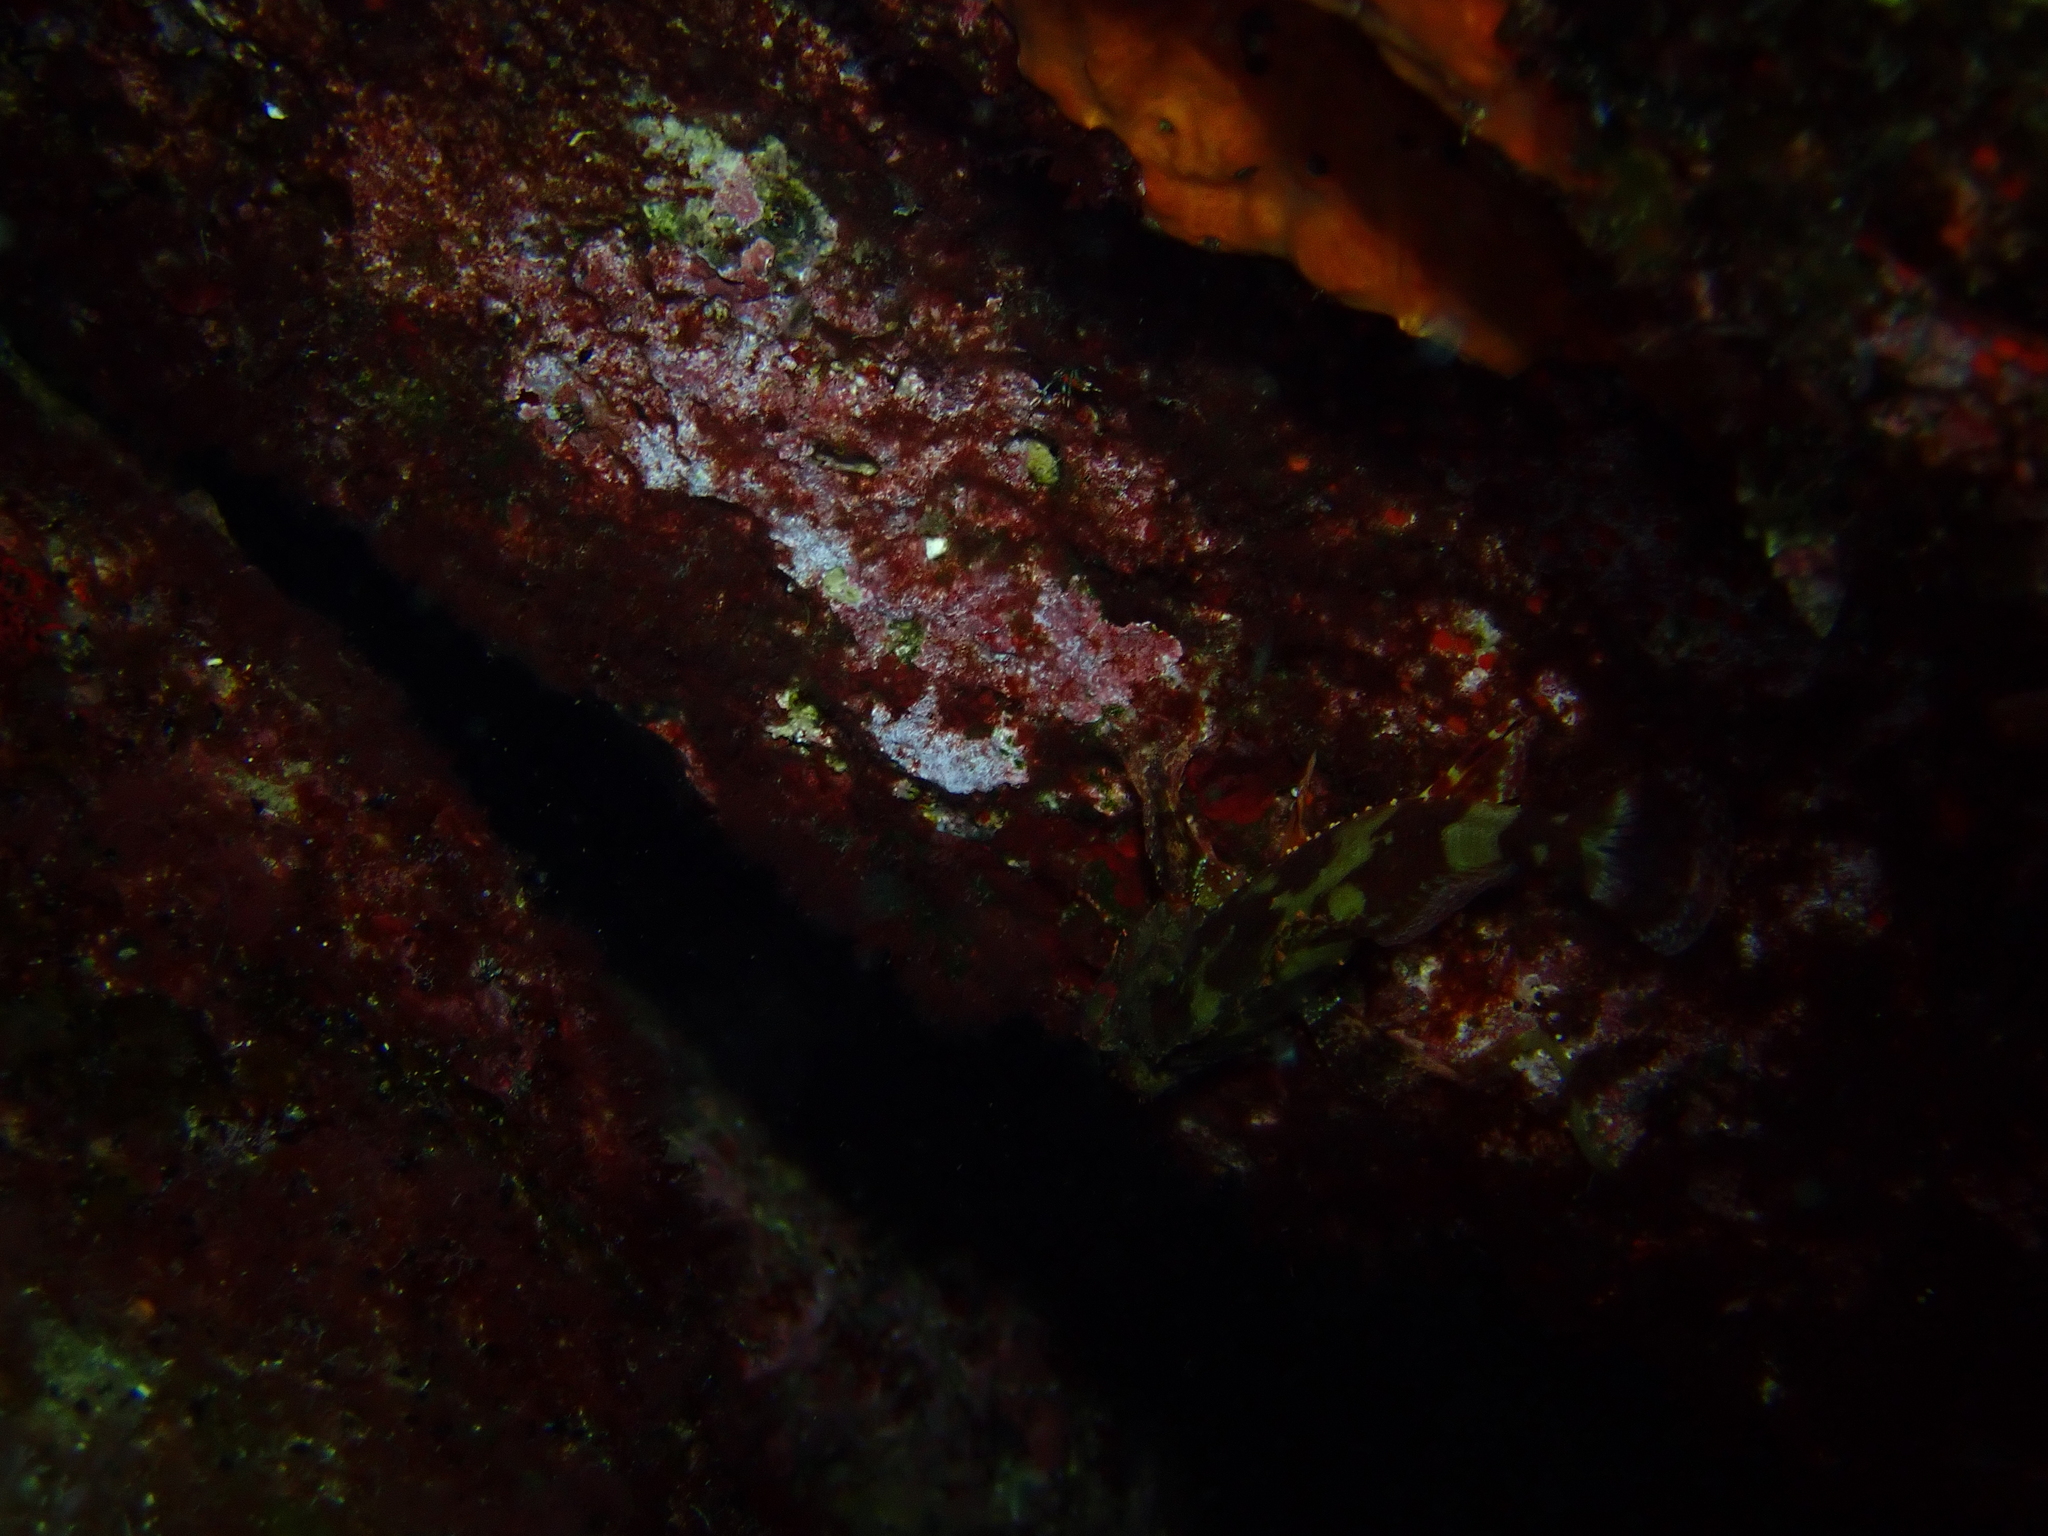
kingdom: Animalia
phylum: Chordata
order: Scorpaeniformes
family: Scorpaenidae
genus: Scorpaena
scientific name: Scorpaena maderensis
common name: Madeira rockfish
